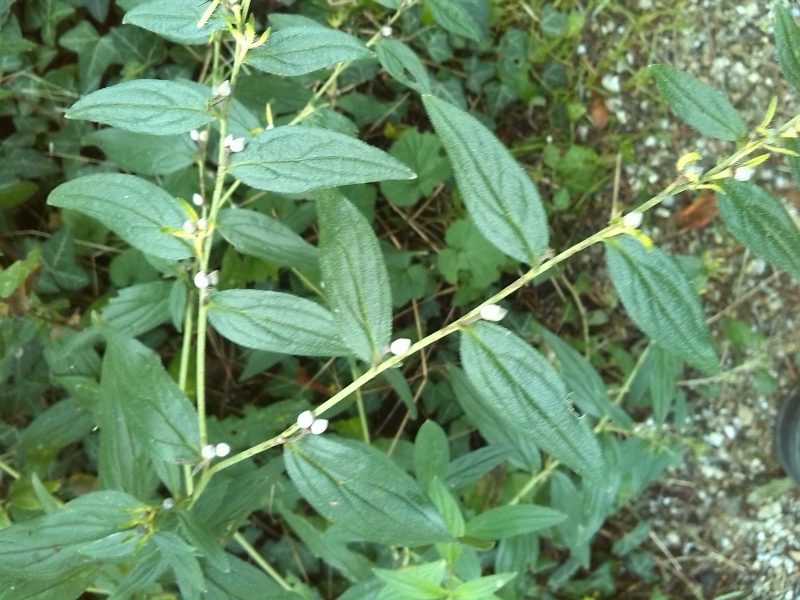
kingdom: Plantae
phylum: Tracheophyta
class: Magnoliopsida
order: Boraginales
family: Boraginaceae
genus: Lithospermum
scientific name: Lithospermum officinale
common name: Common gromwell
